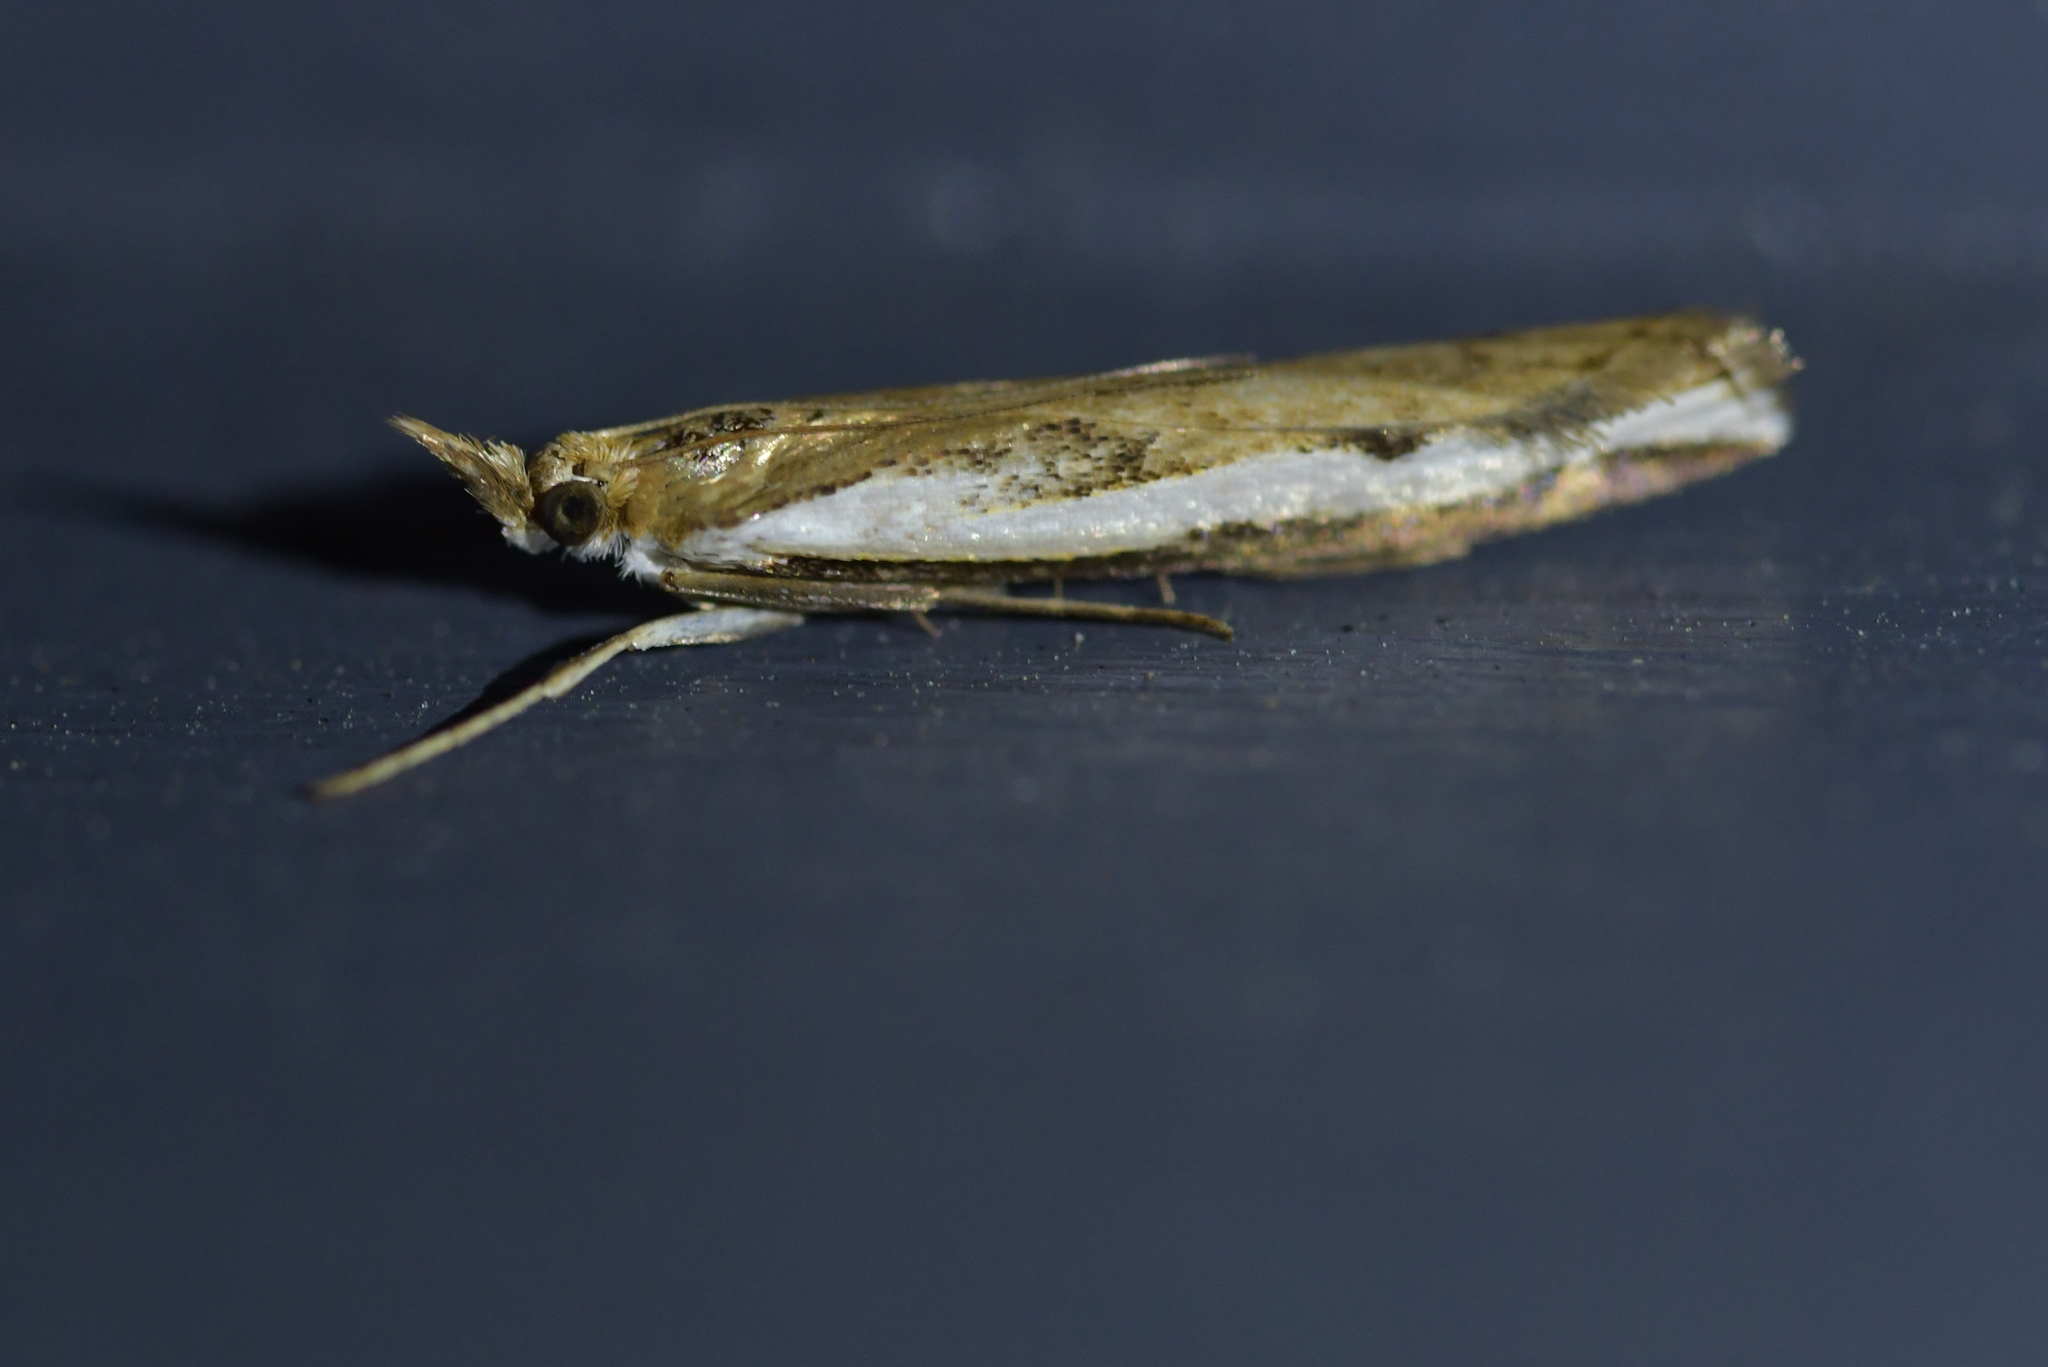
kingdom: Animalia
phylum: Arthropoda
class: Insecta
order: Lepidoptera
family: Crambidae
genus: Orocrambus
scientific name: Orocrambus flexuosellus
